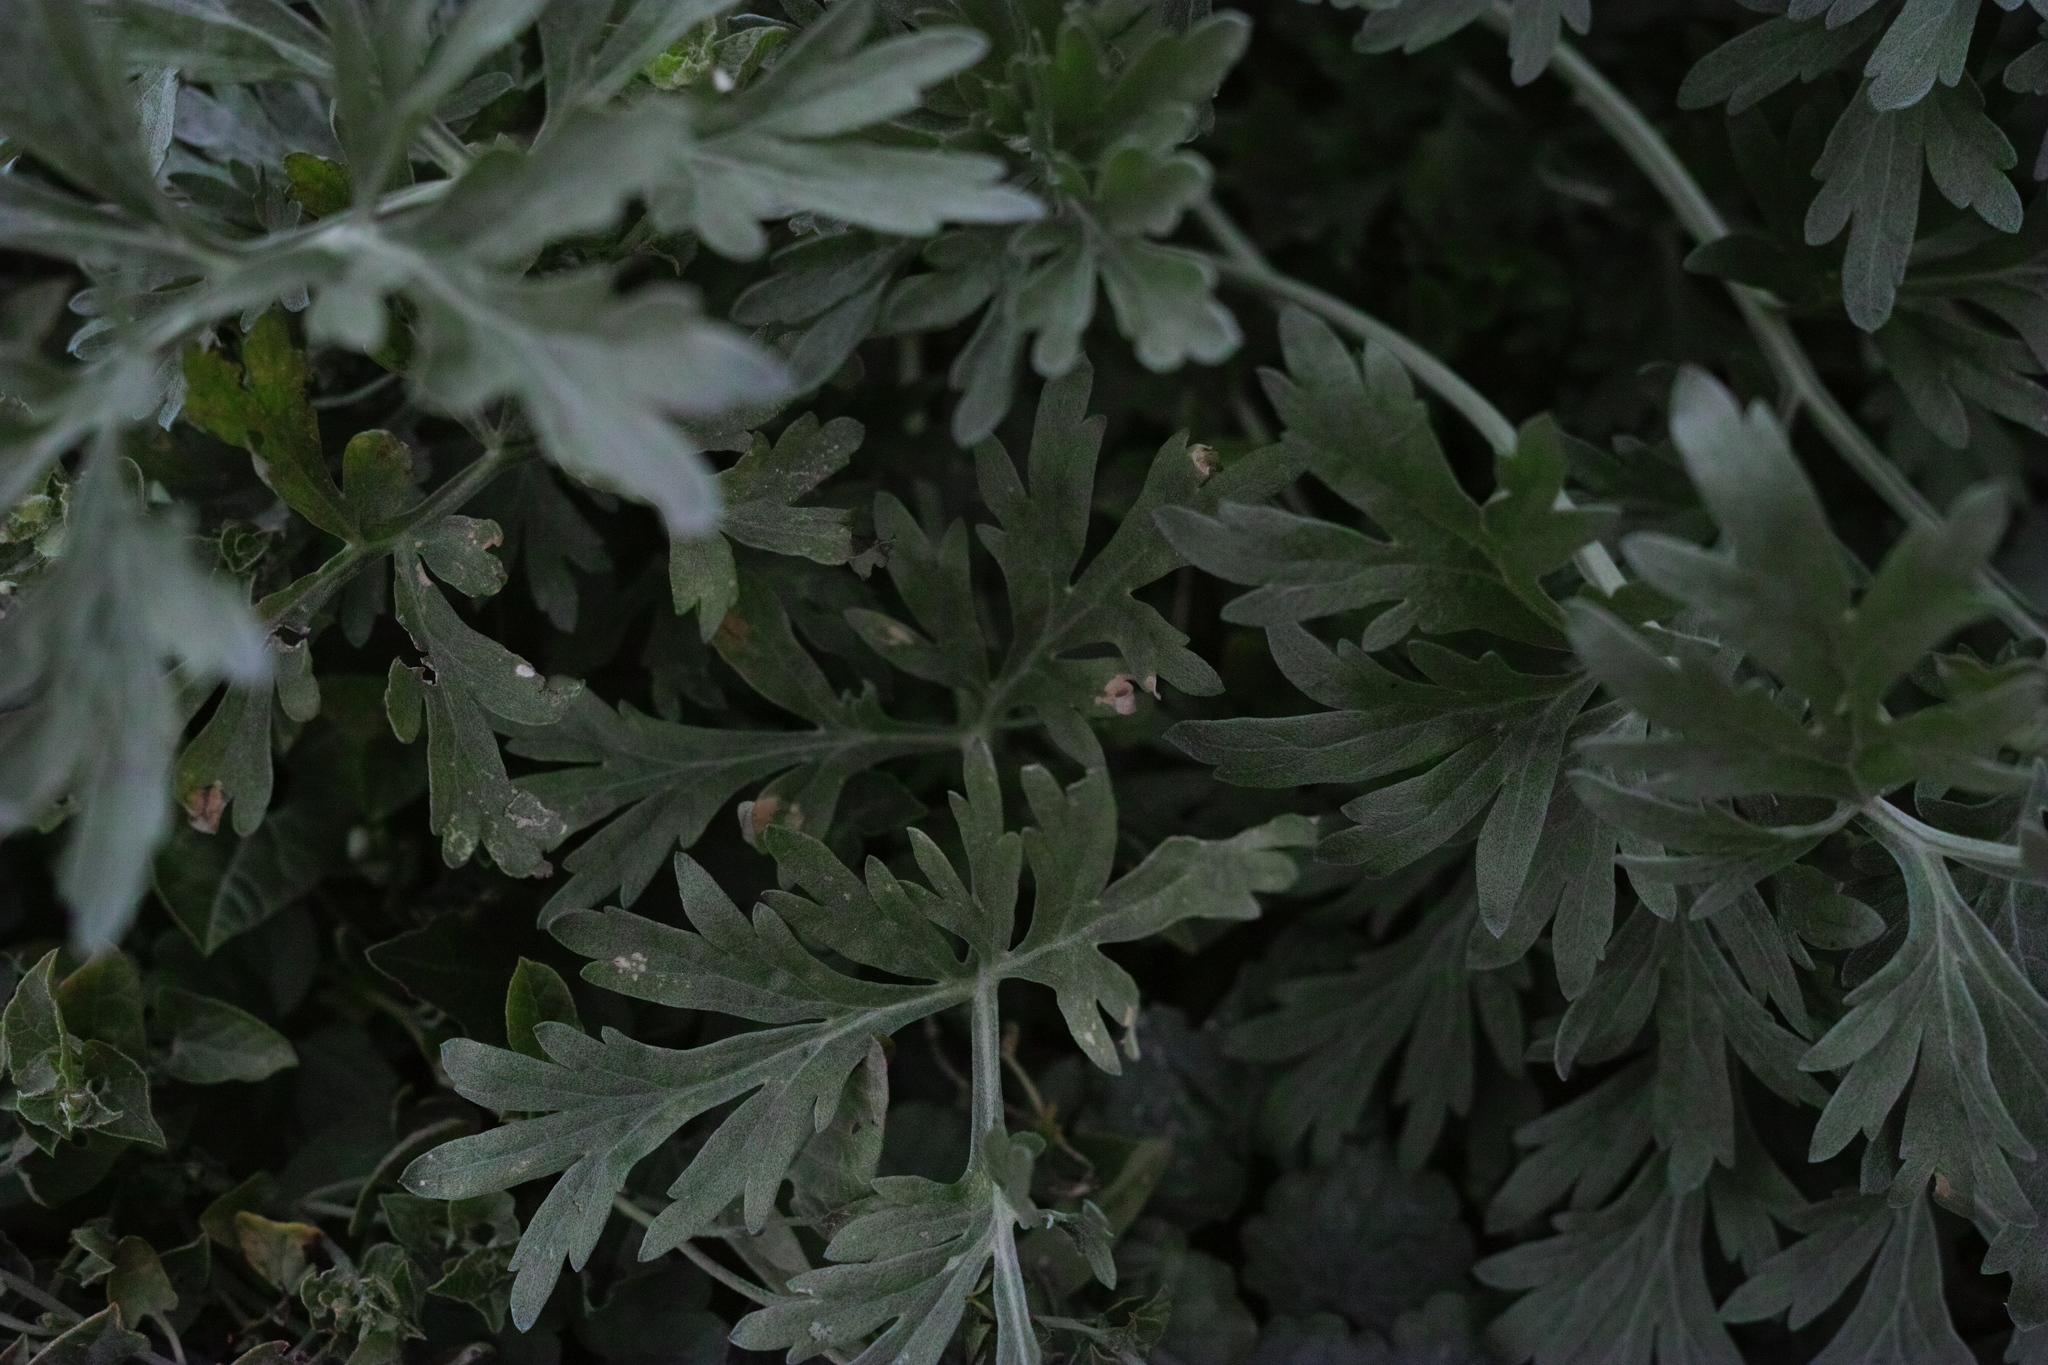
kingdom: Plantae
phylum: Tracheophyta
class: Magnoliopsida
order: Asterales
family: Asteraceae
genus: Artemisia
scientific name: Artemisia absinthium
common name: Wormwood
